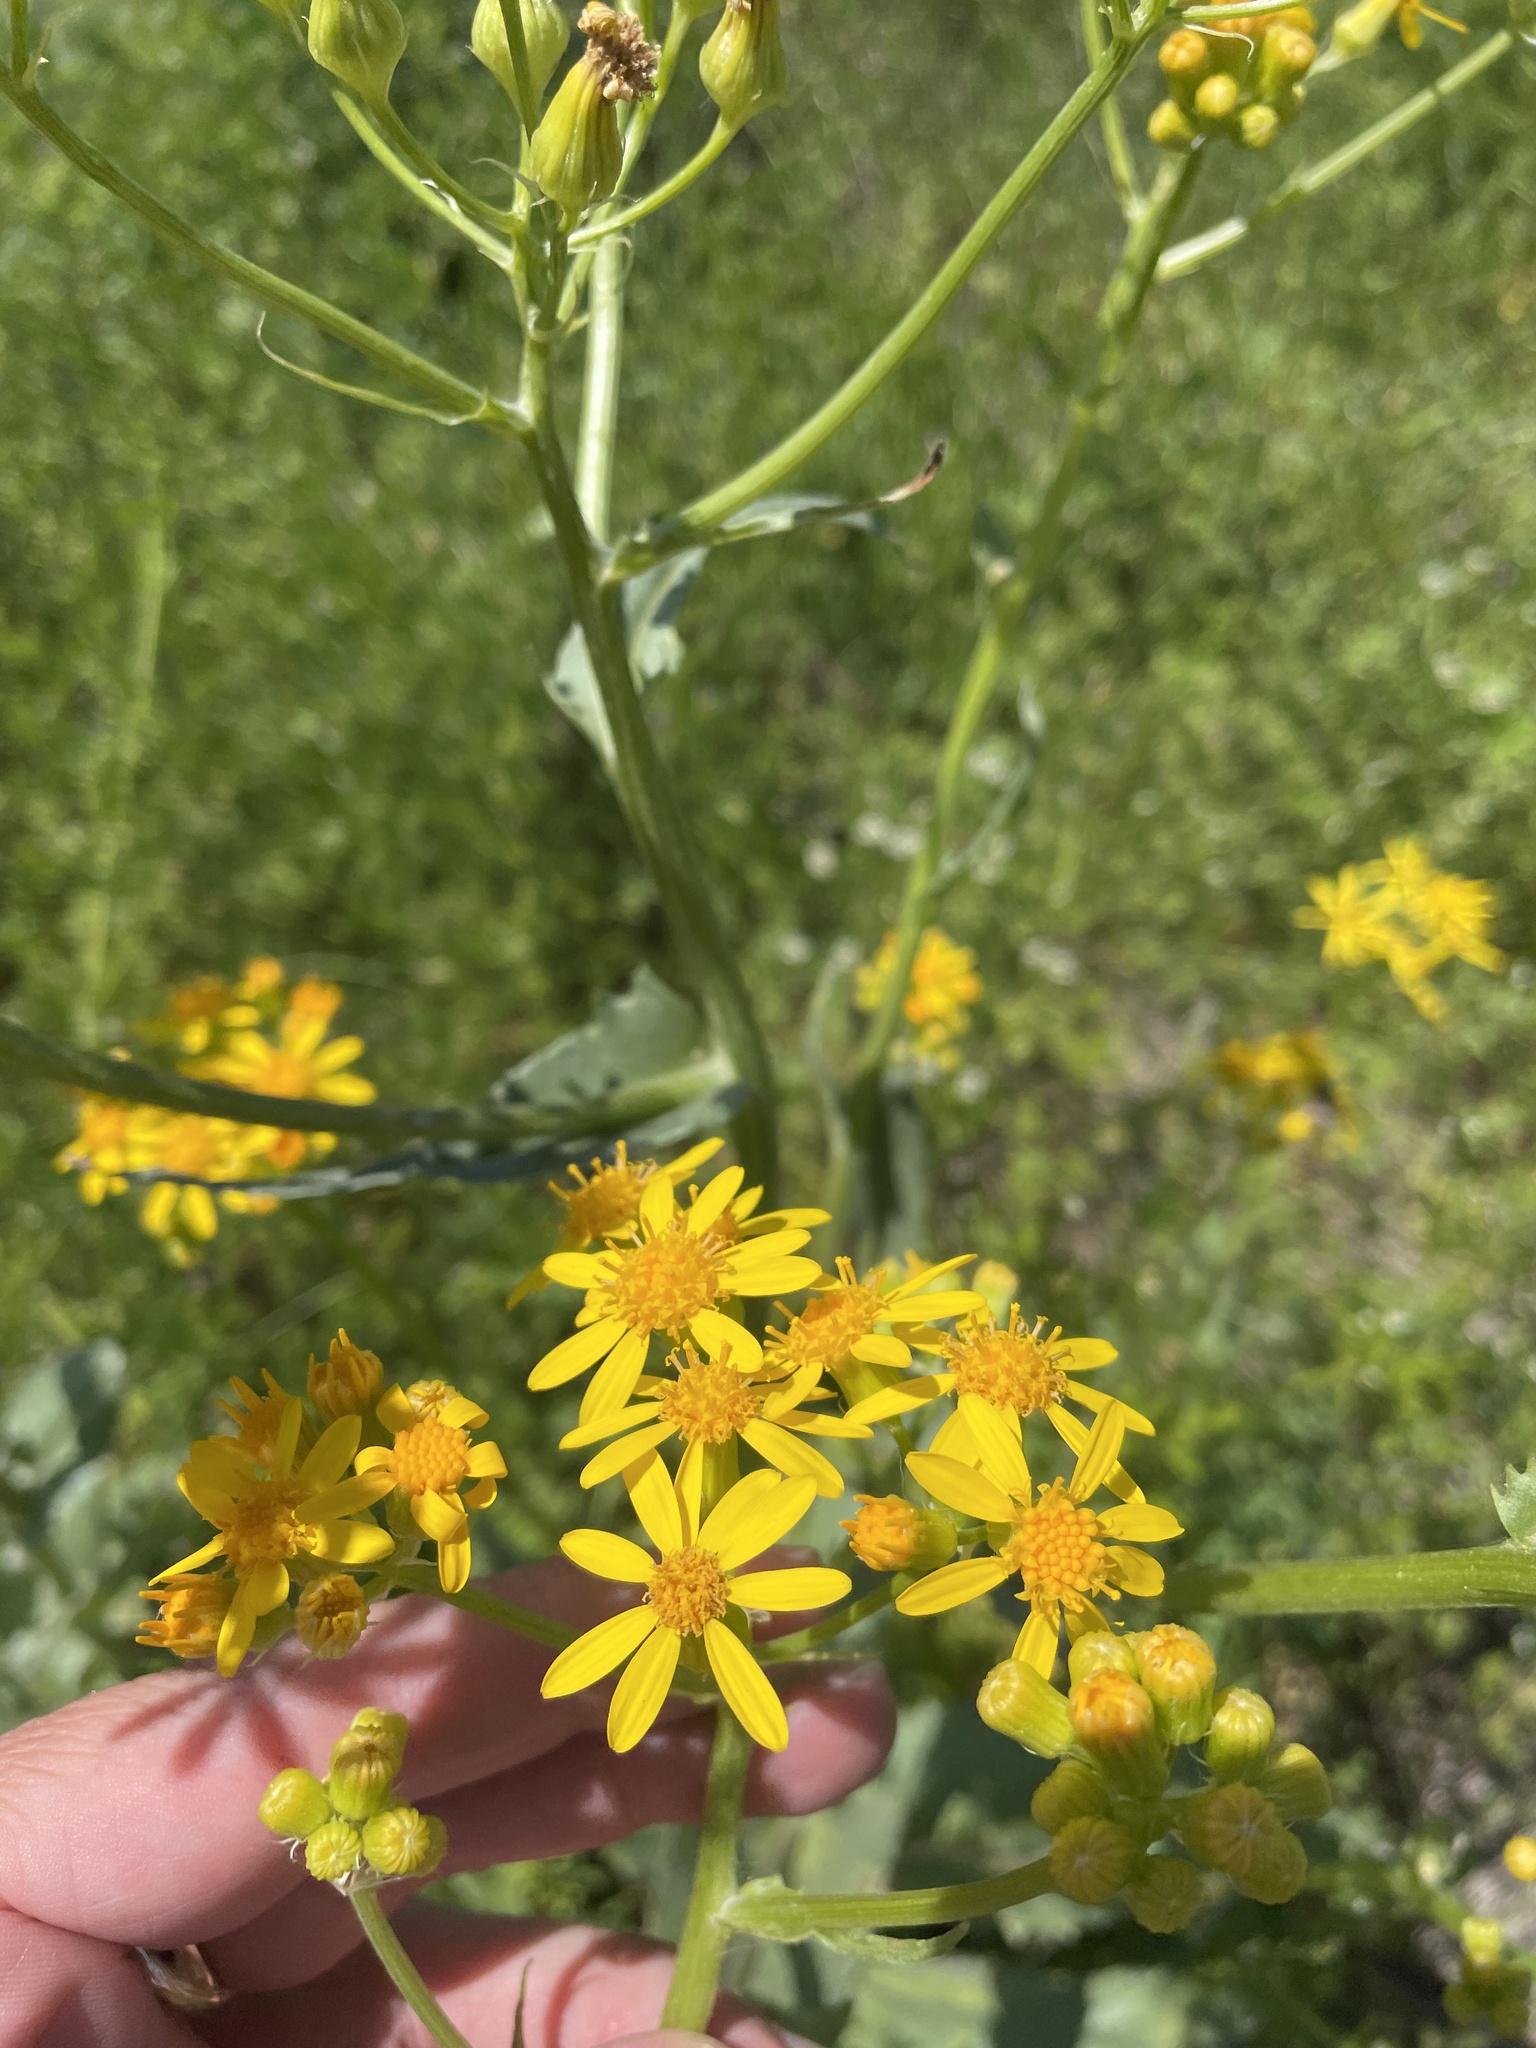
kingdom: Plantae
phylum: Tracheophyta
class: Magnoliopsida
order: Asterales
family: Asteraceae
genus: Senecio
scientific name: Senecio ampullaceus
